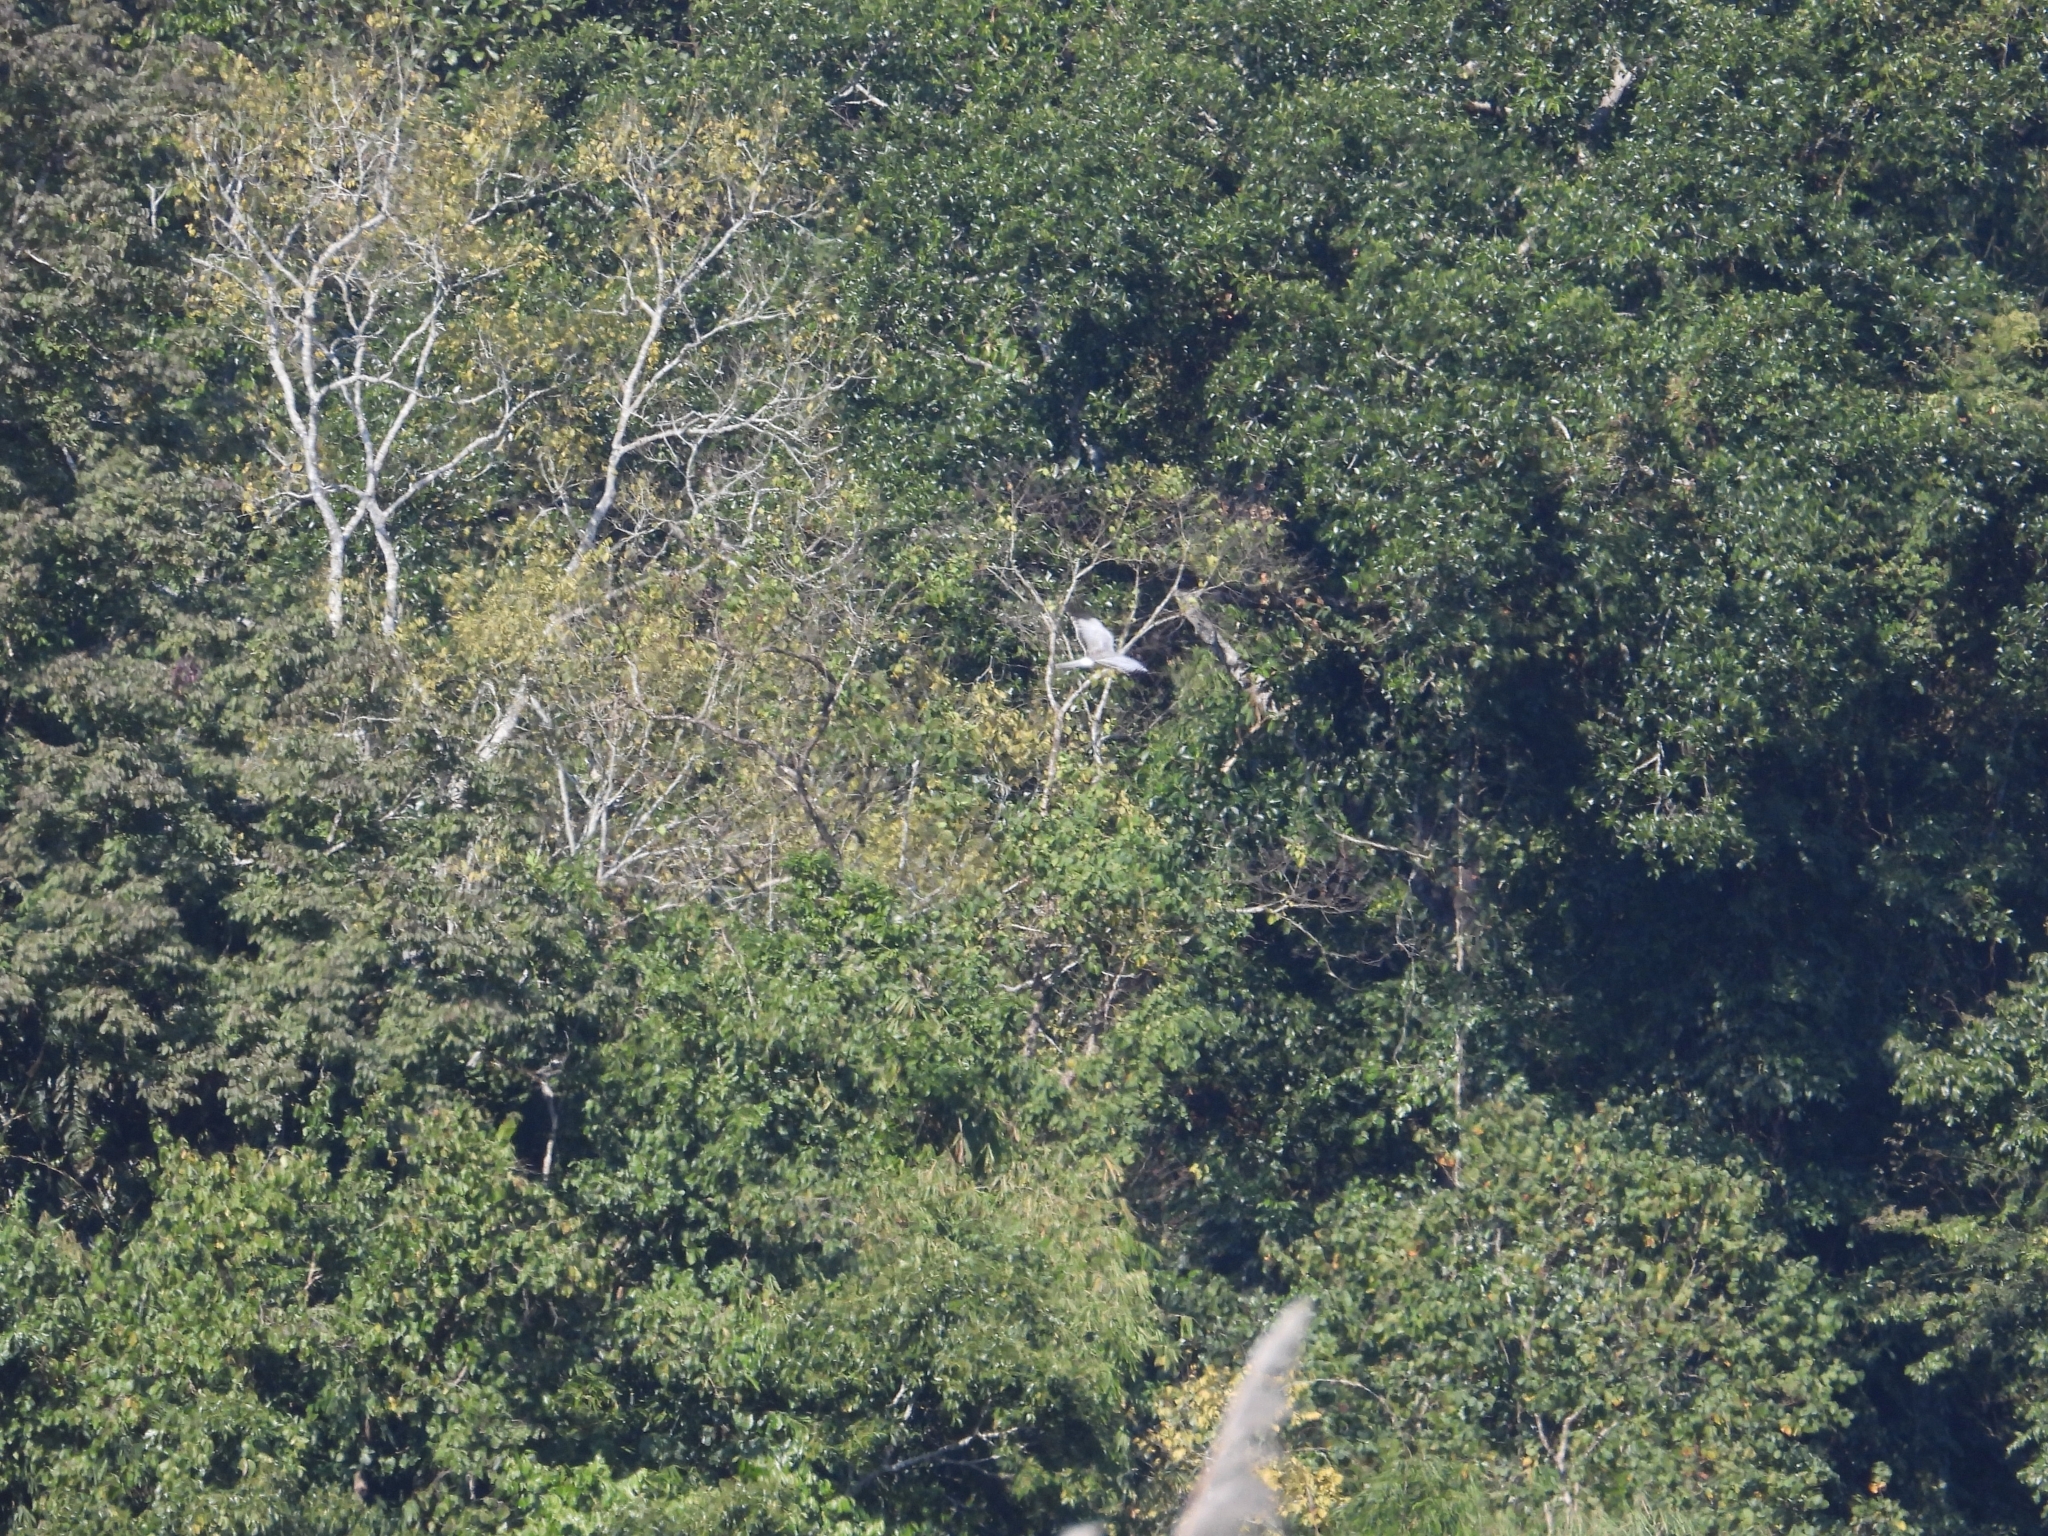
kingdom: Animalia
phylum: Chordata
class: Aves
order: Accipitriformes
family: Accipitridae
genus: Circus
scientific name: Circus cyaneus
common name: Hen harrier
